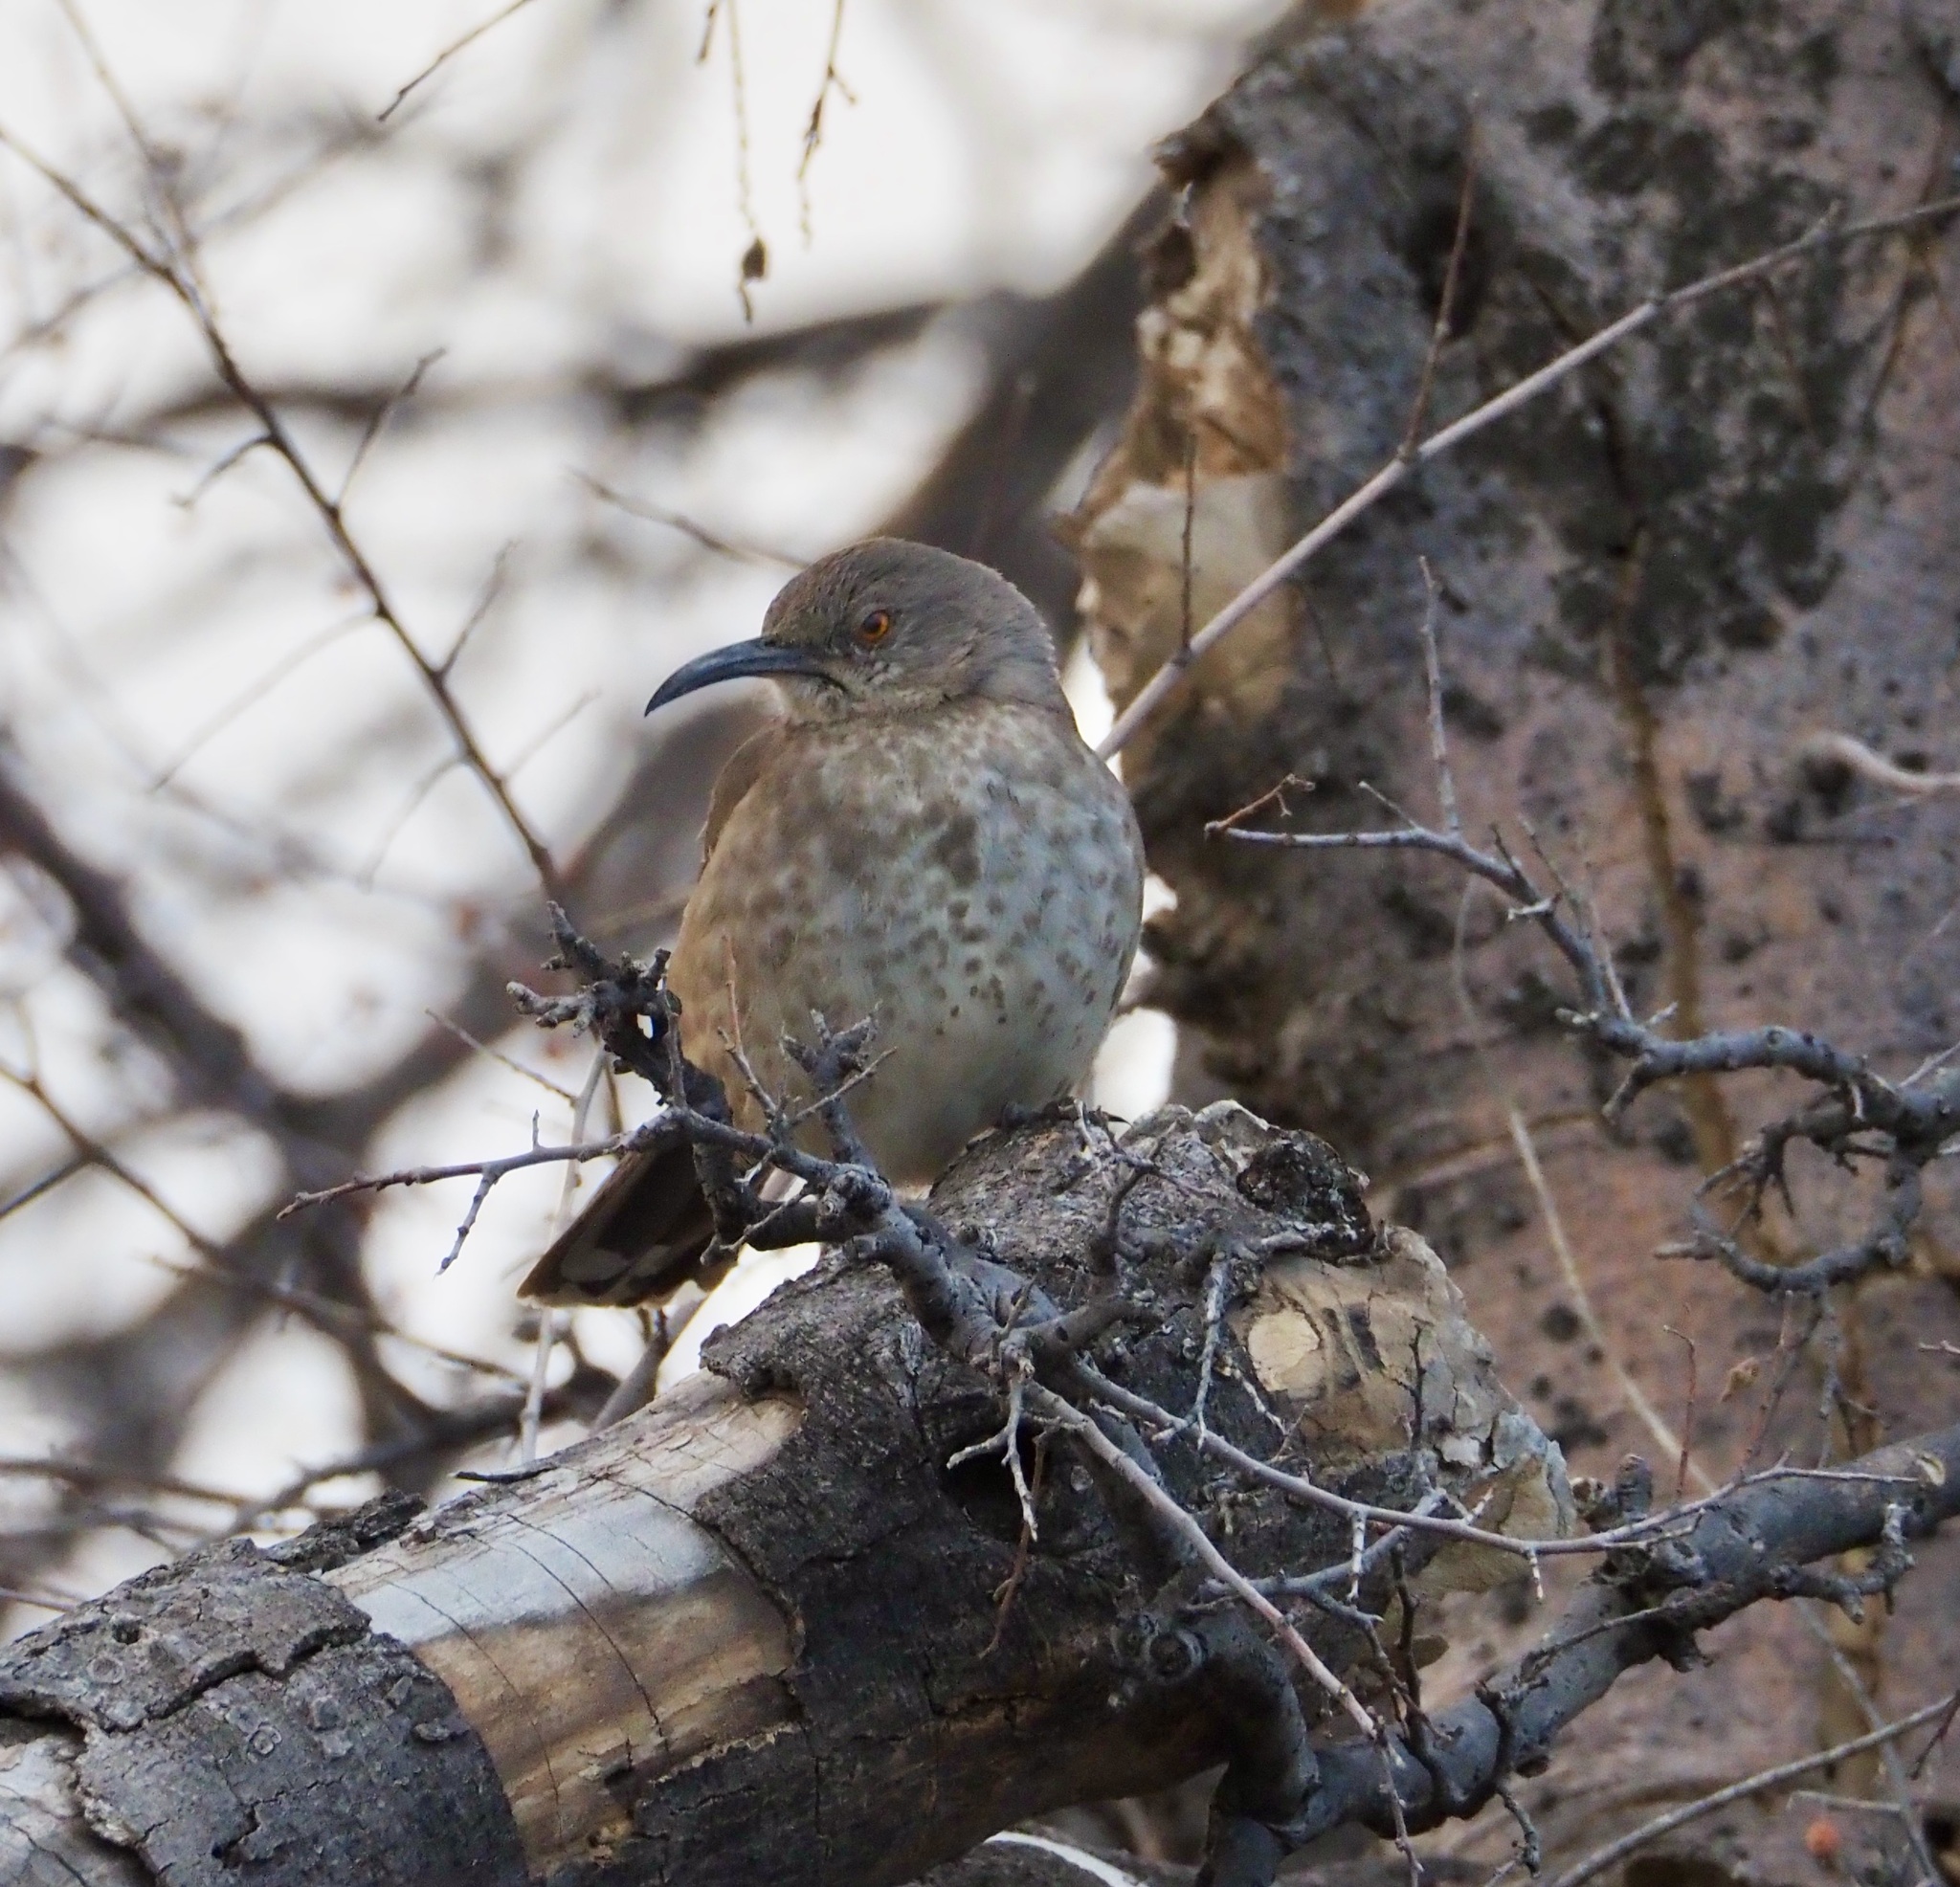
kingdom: Animalia
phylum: Chordata
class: Aves
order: Passeriformes
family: Tyrannidae
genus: Sayornis
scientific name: Sayornis saya
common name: Say's phoebe
